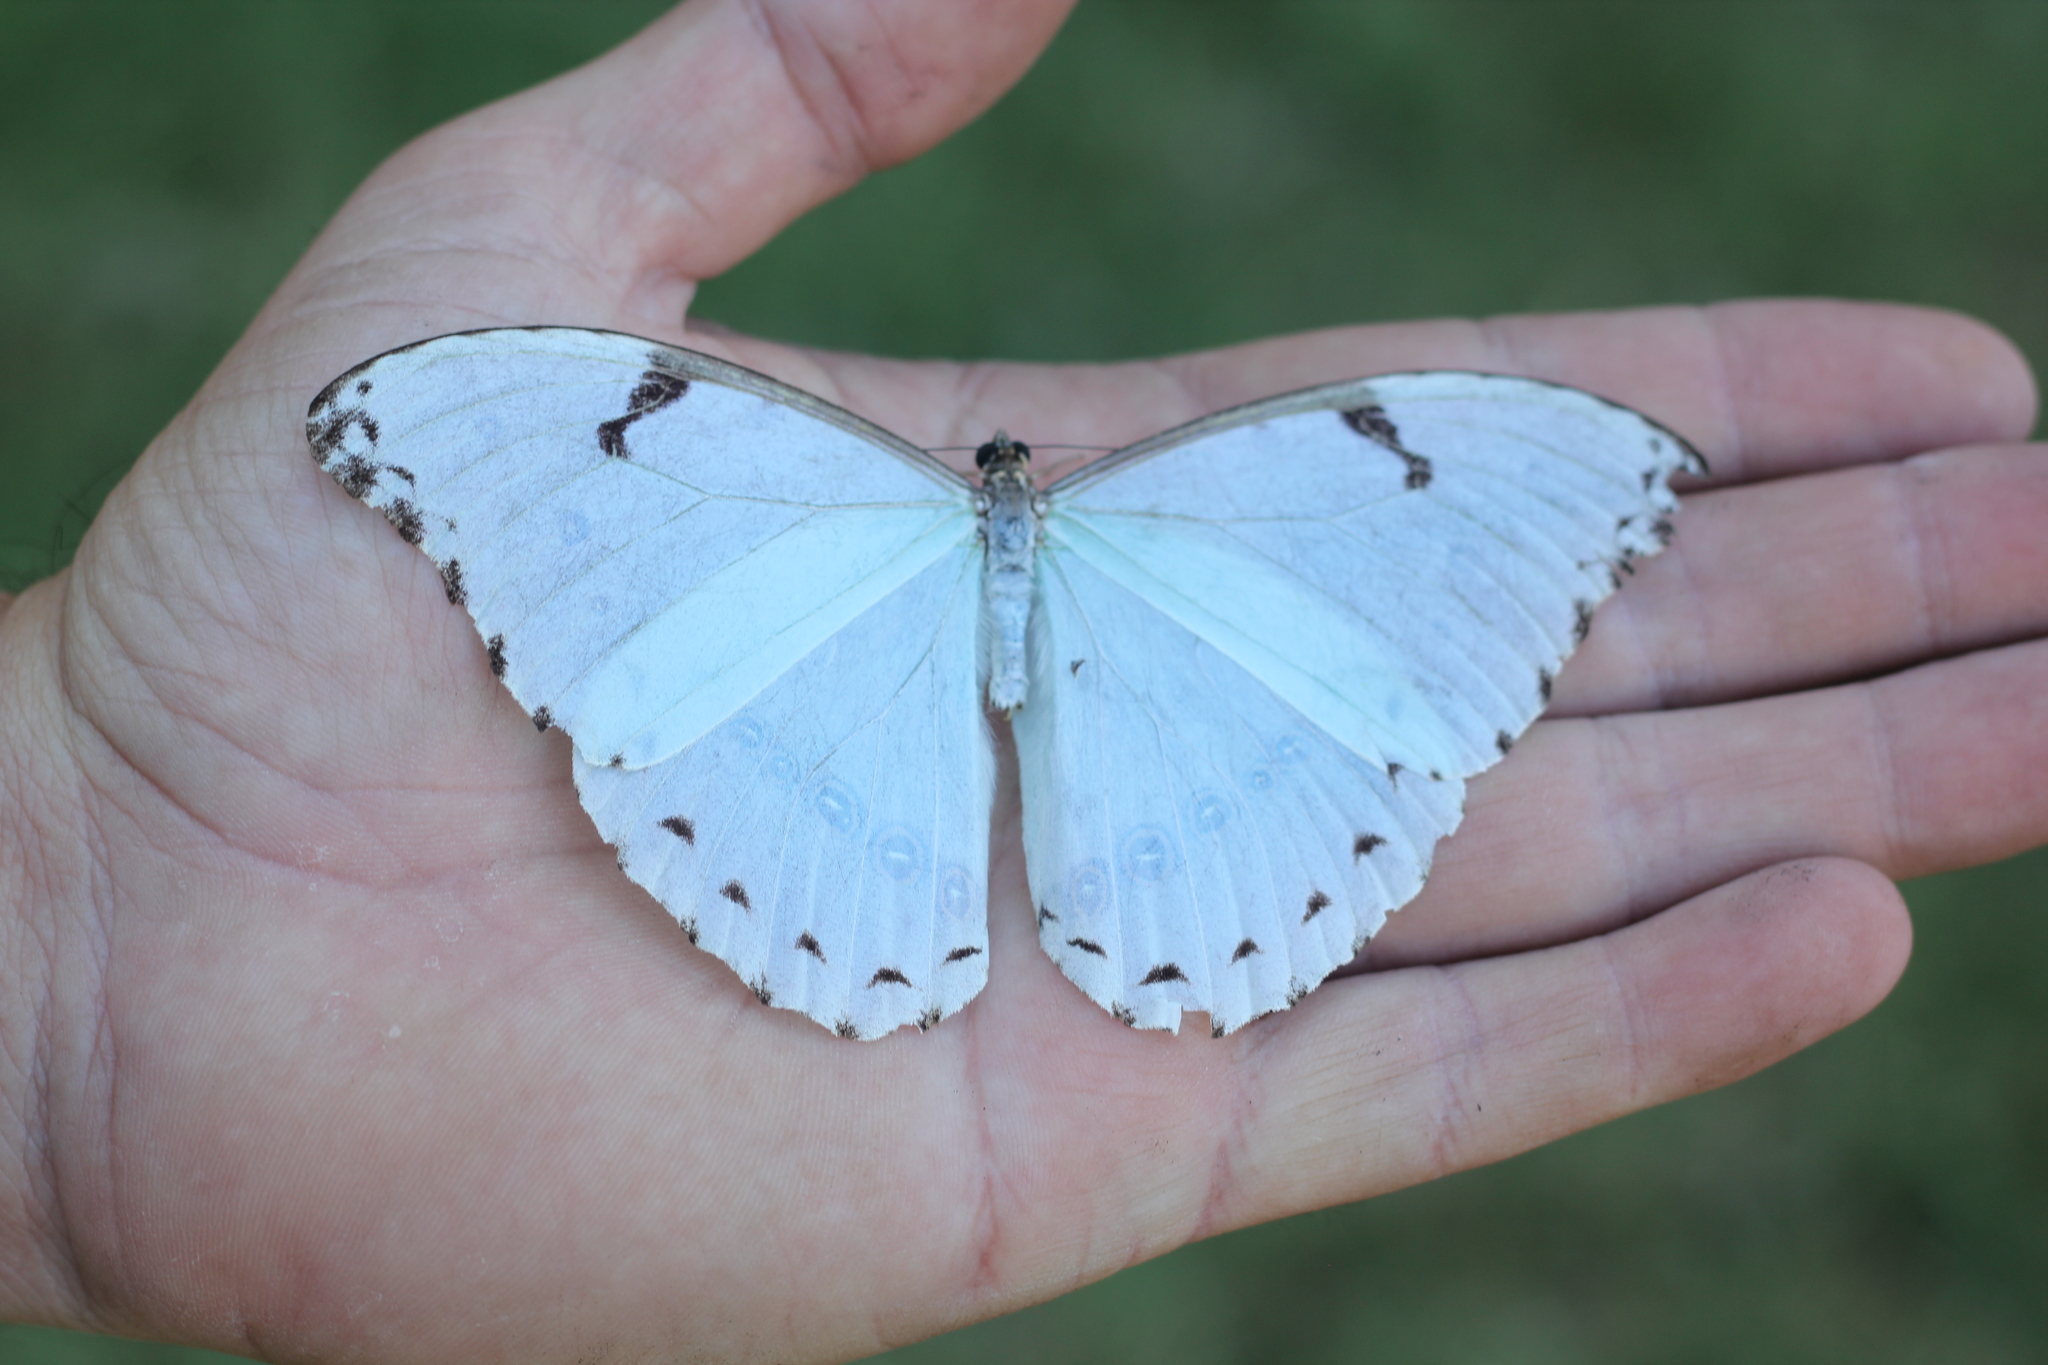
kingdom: Animalia
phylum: Arthropoda
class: Insecta
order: Lepidoptera
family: Nymphalidae
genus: Morpho
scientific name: Morpho epistrophus
